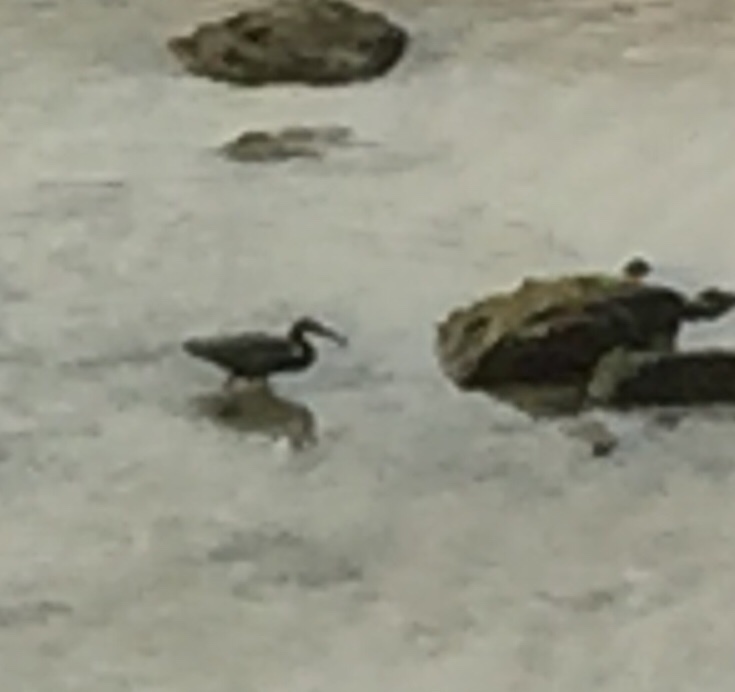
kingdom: Animalia
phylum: Chordata
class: Aves
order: Pelecaniformes
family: Ardeidae
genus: Egretta
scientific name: Egretta sacra
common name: Pacific reef heron
